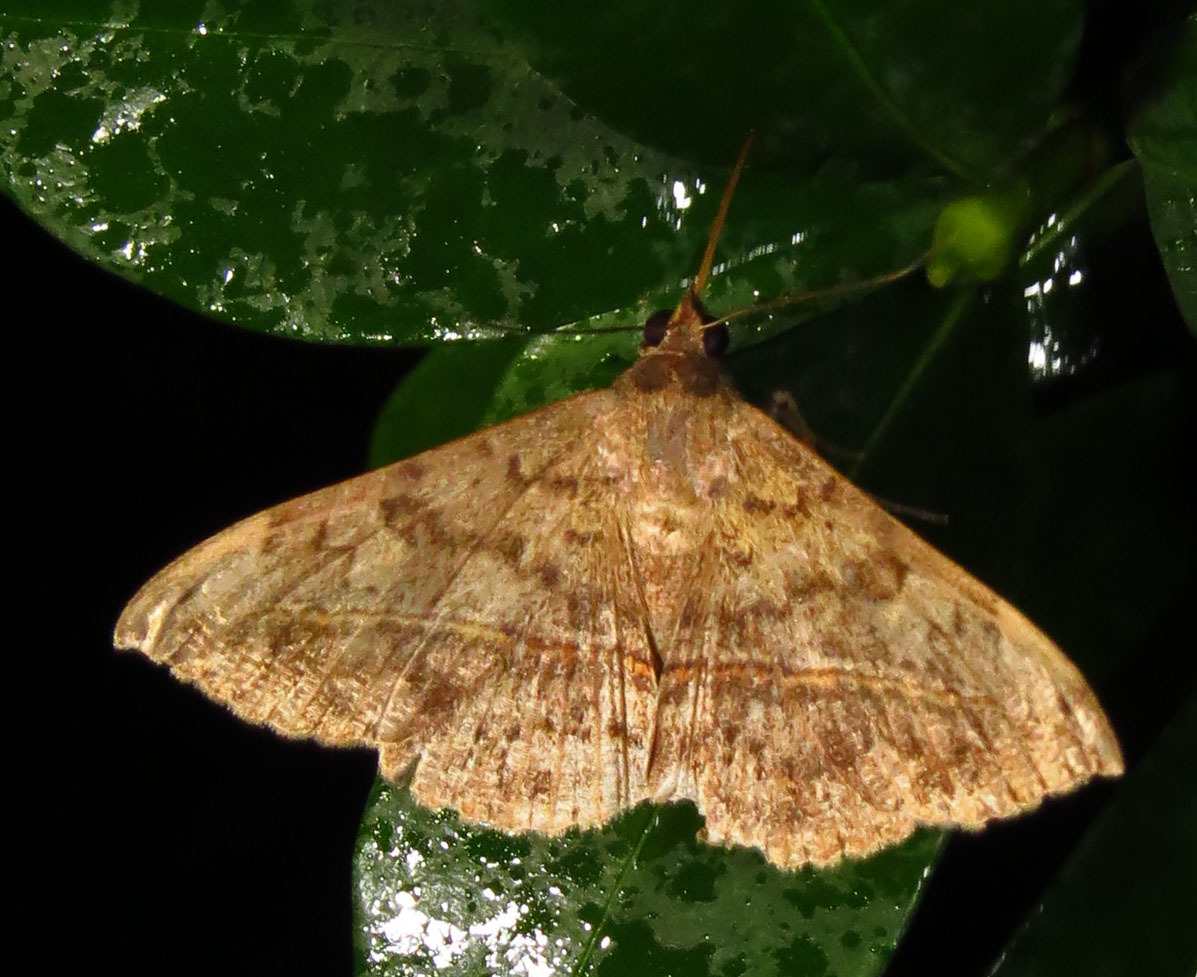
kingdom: Animalia
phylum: Arthropoda
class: Insecta
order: Lepidoptera
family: Erebidae
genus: Anticarsia
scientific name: Anticarsia gemmatalis
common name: Cutworm moth
